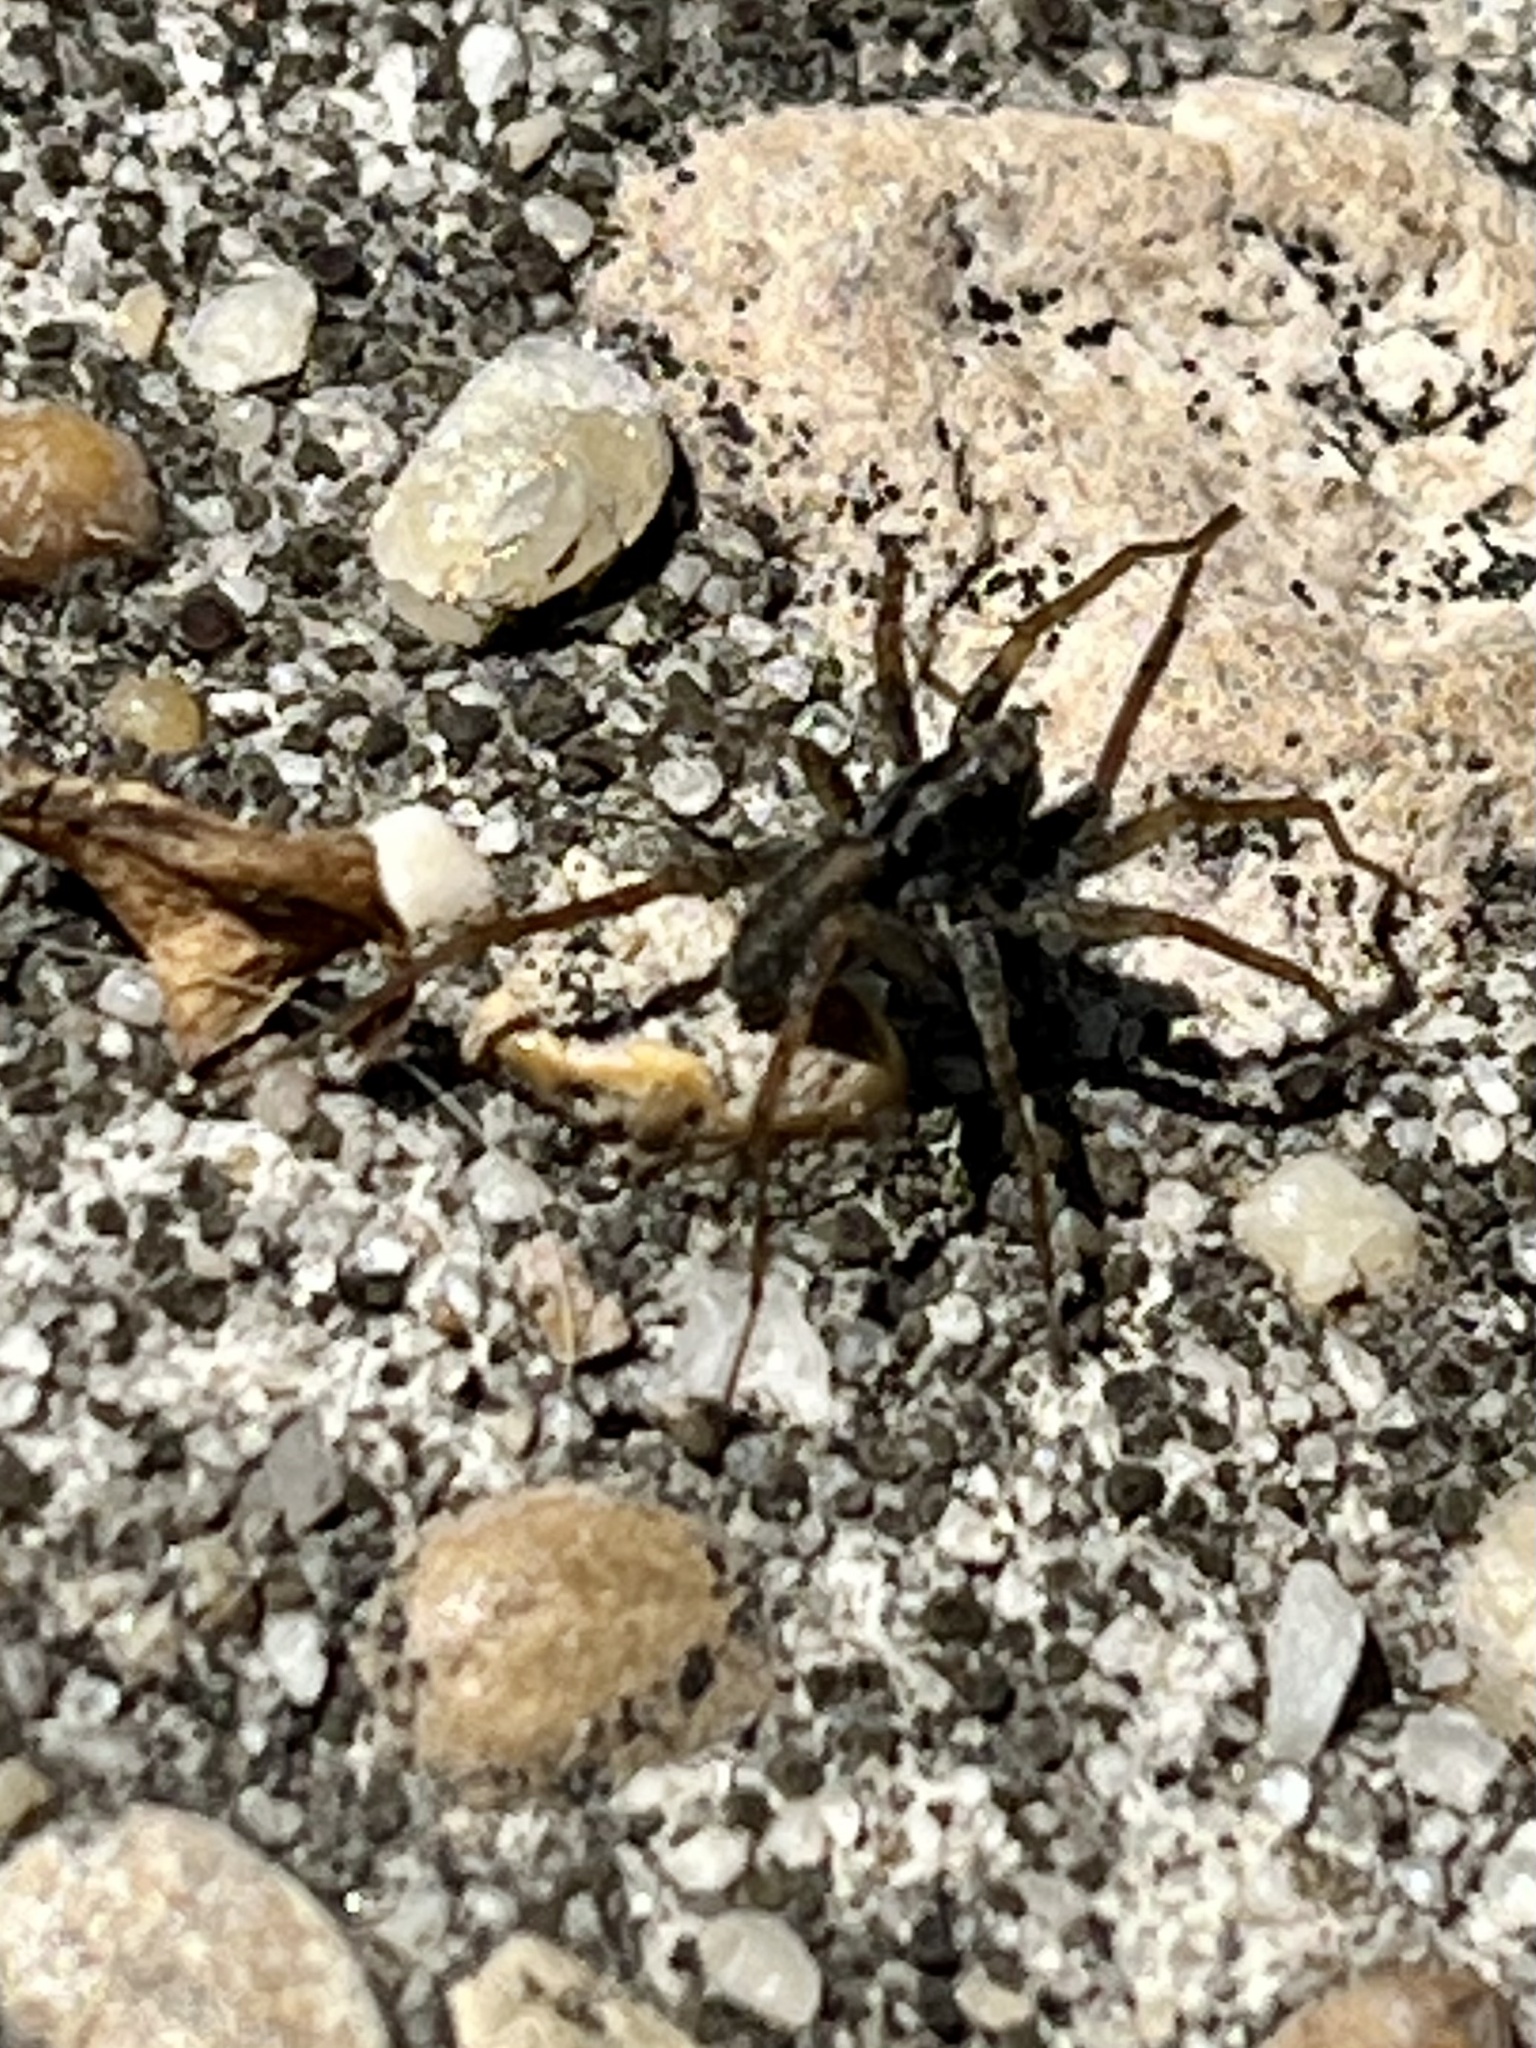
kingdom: Animalia
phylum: Arthropoda
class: Arachnida
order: Araneae
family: Lycosidae
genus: Pardosa
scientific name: Pardosa milvina
